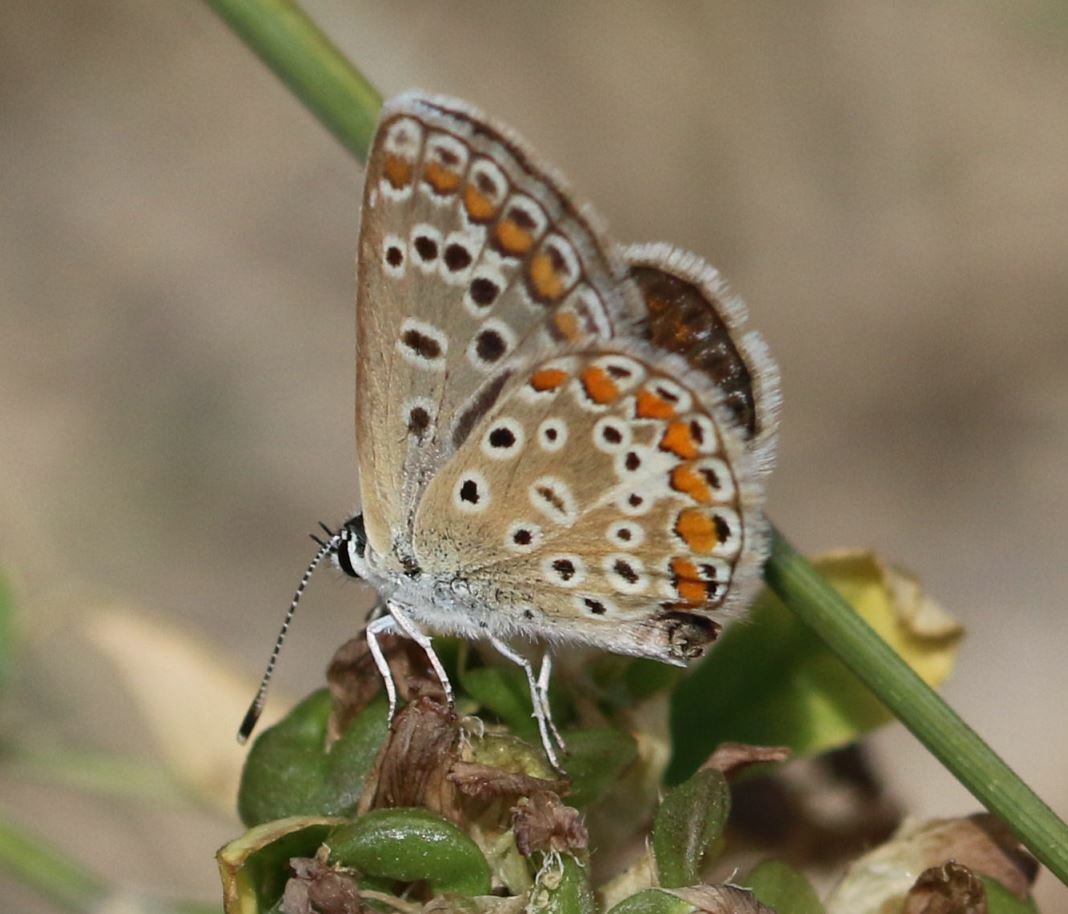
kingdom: Animalia
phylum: Arthropoda
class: Insecta
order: Lepidoptera
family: Lycaenidae
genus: Polyommatus
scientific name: Polyommatus icarus
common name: Common blue
